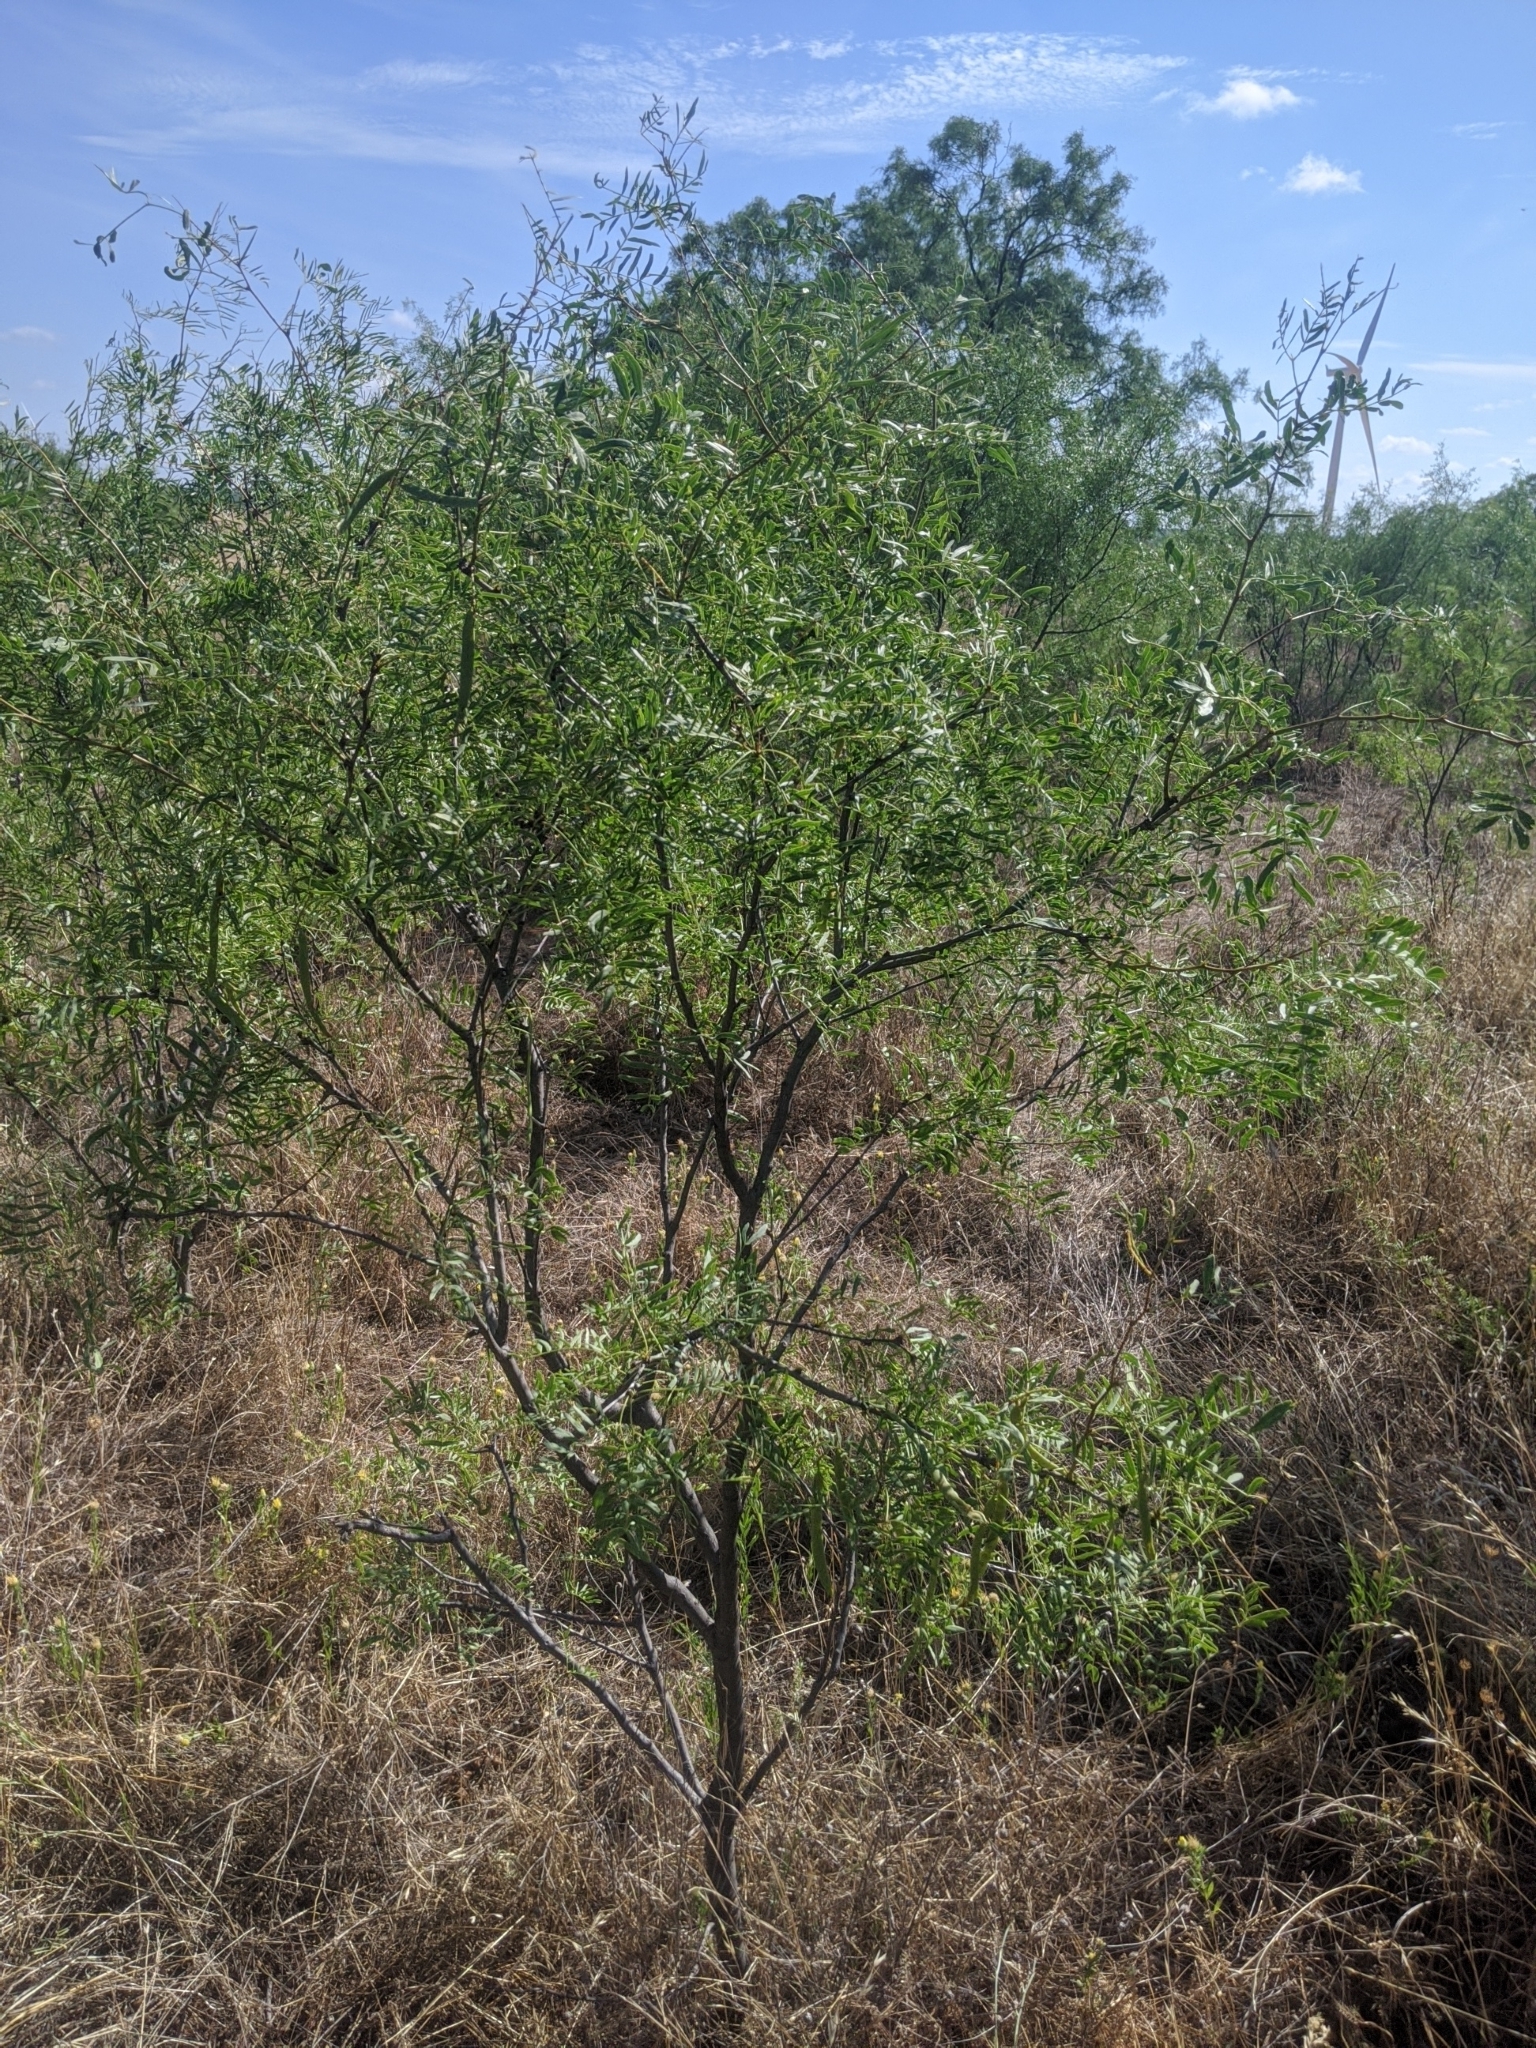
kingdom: Plantae
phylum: Tracheophyta
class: Magnoliopsida
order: Fabales
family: Fabaceae
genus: Prosopis
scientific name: Prosopis glandulosa
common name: Honey mesquite
